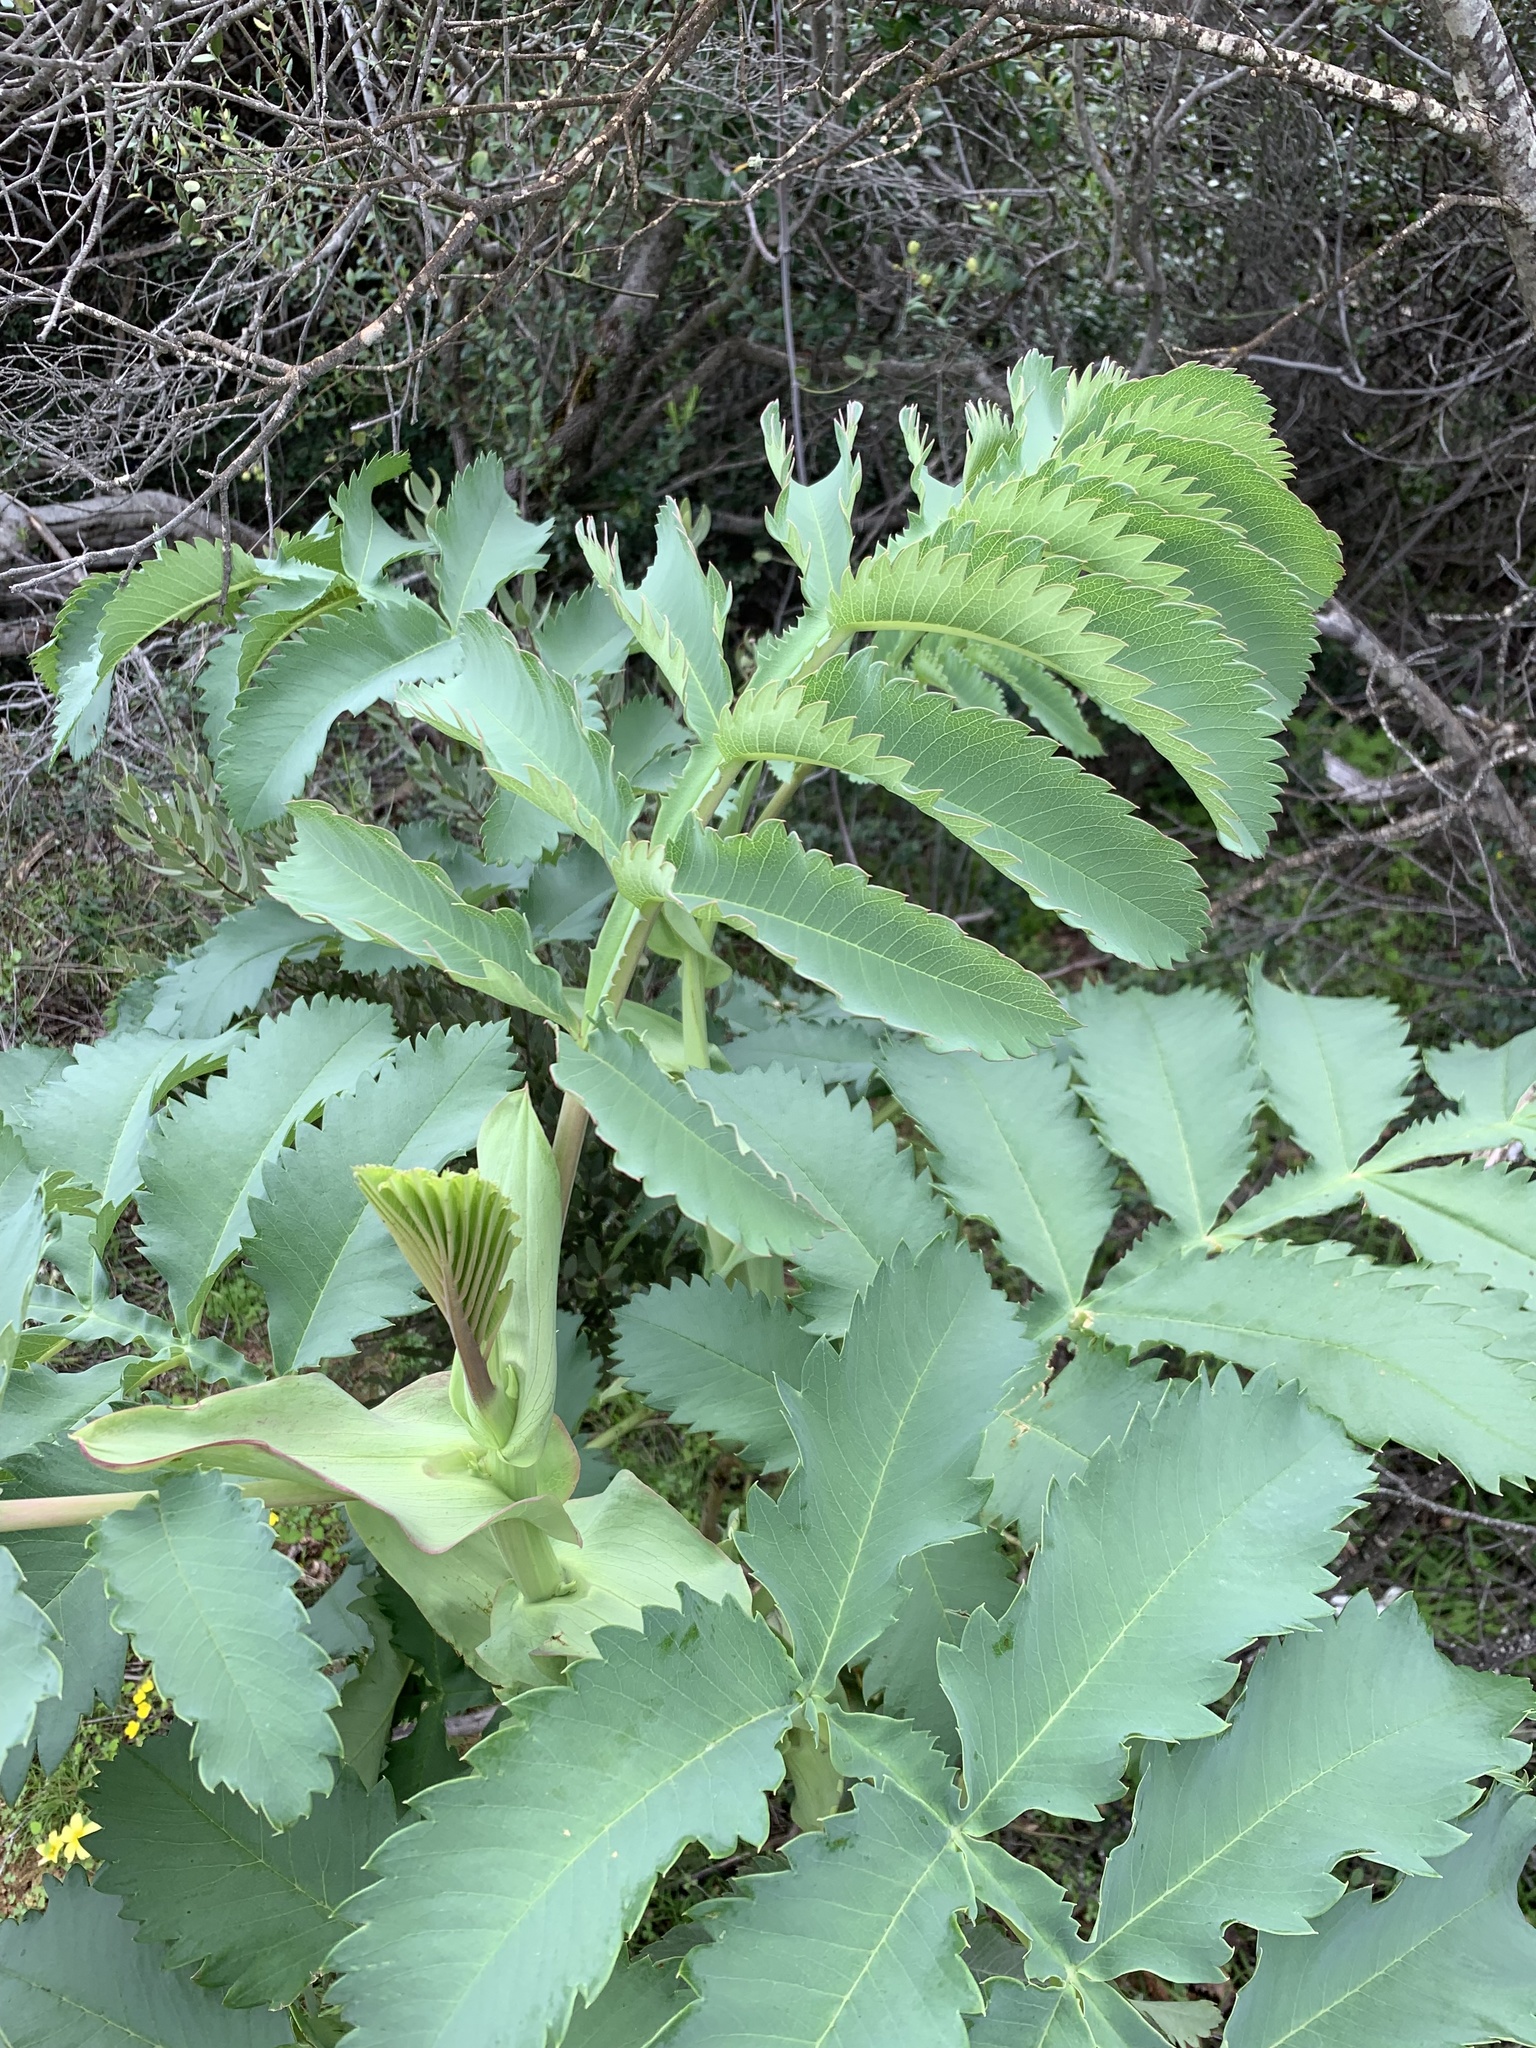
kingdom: Plantae
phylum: Tracheophyta
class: Magnoliopsida
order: Geraniales
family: Melianthaceae
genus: Melianthus
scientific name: Melianthus major
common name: Honey-flower
